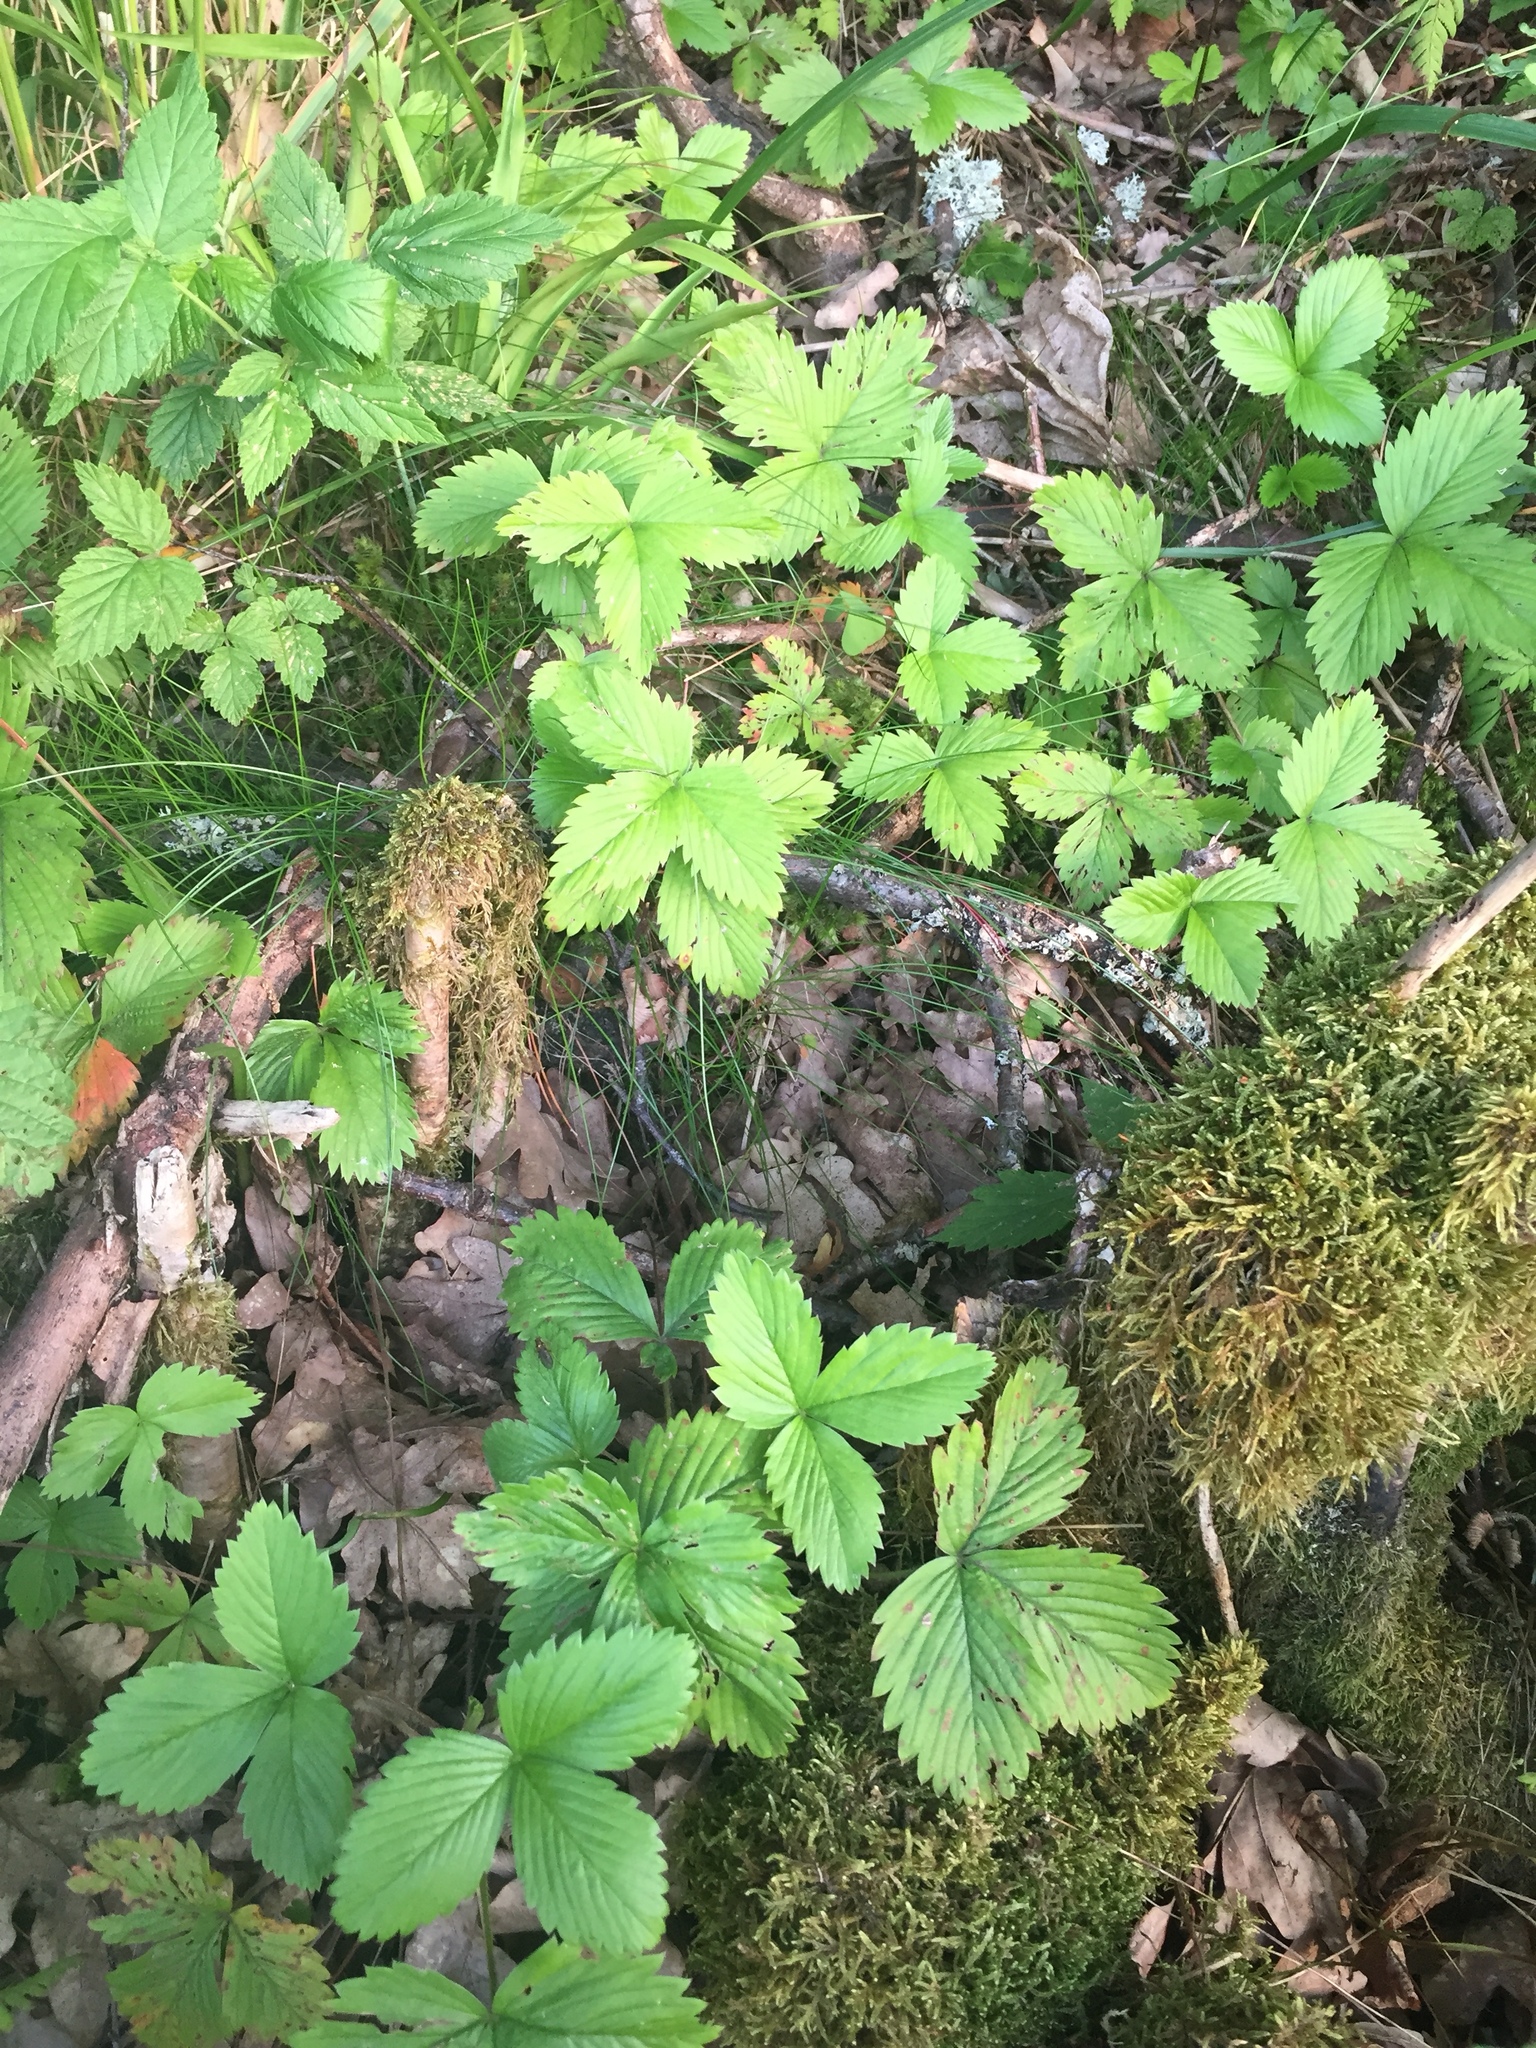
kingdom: Plantae
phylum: Tracheophyta
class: Magnoliopsida
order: Rosales
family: Rosaceae
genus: Fragaria
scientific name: Fragaria vesca
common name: Wild strawberry
